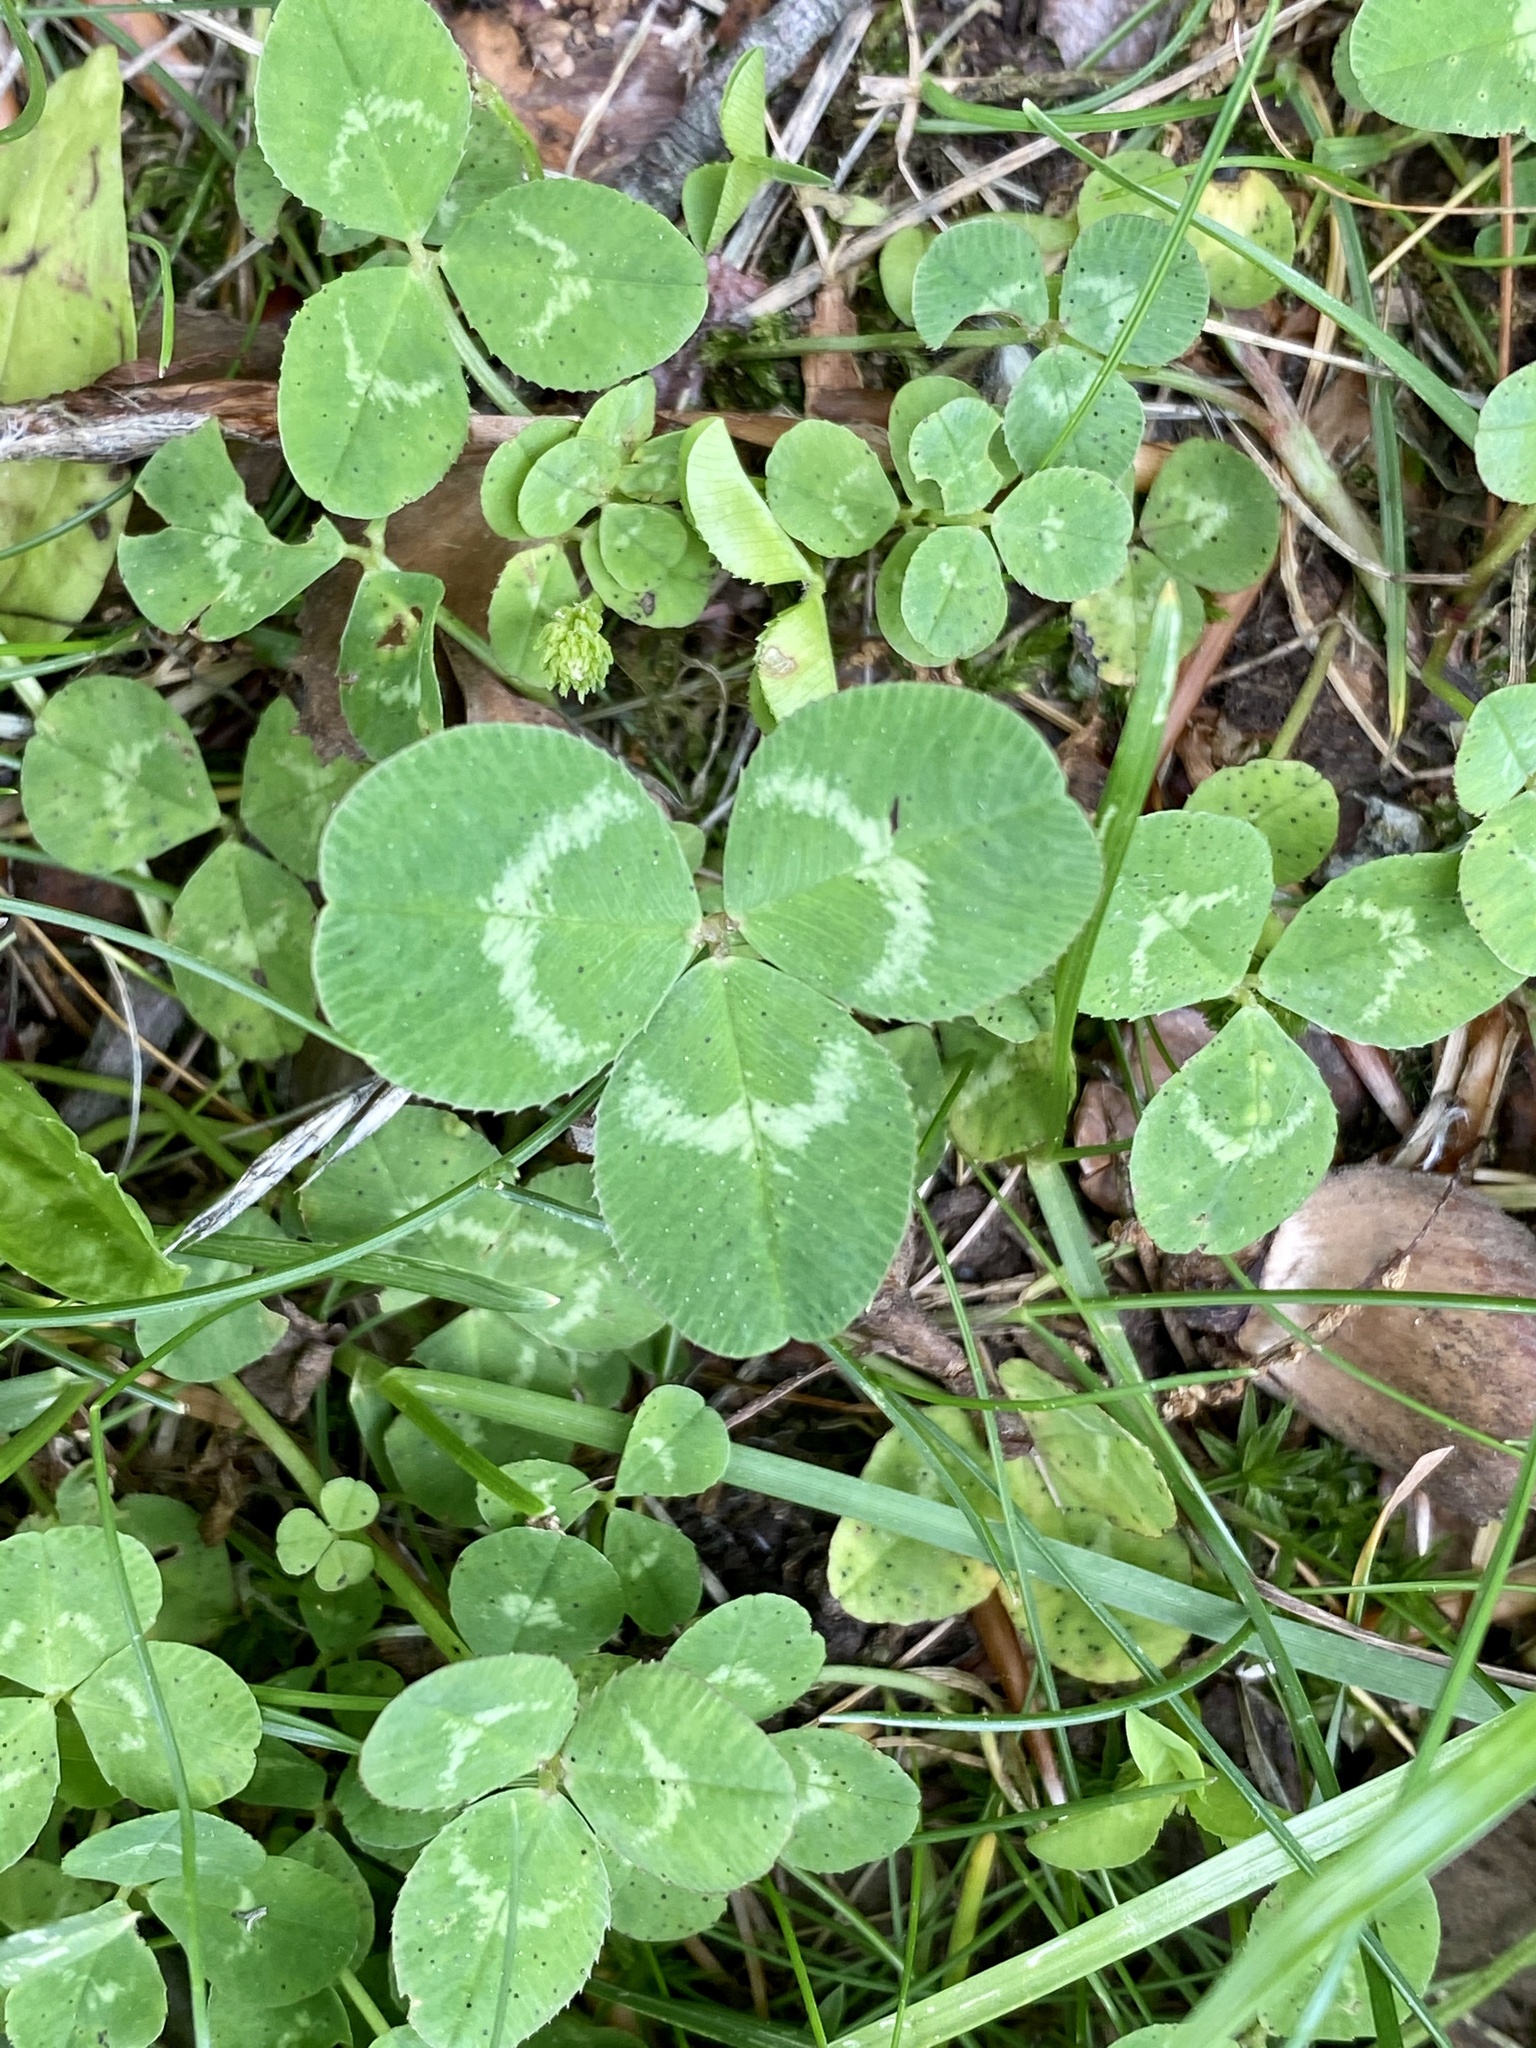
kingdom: Plantae
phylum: Tracheophyta
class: Magnoliopsida
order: Fabales
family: Fabaceae
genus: Trifolium
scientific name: Trifolium repens
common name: White clover
